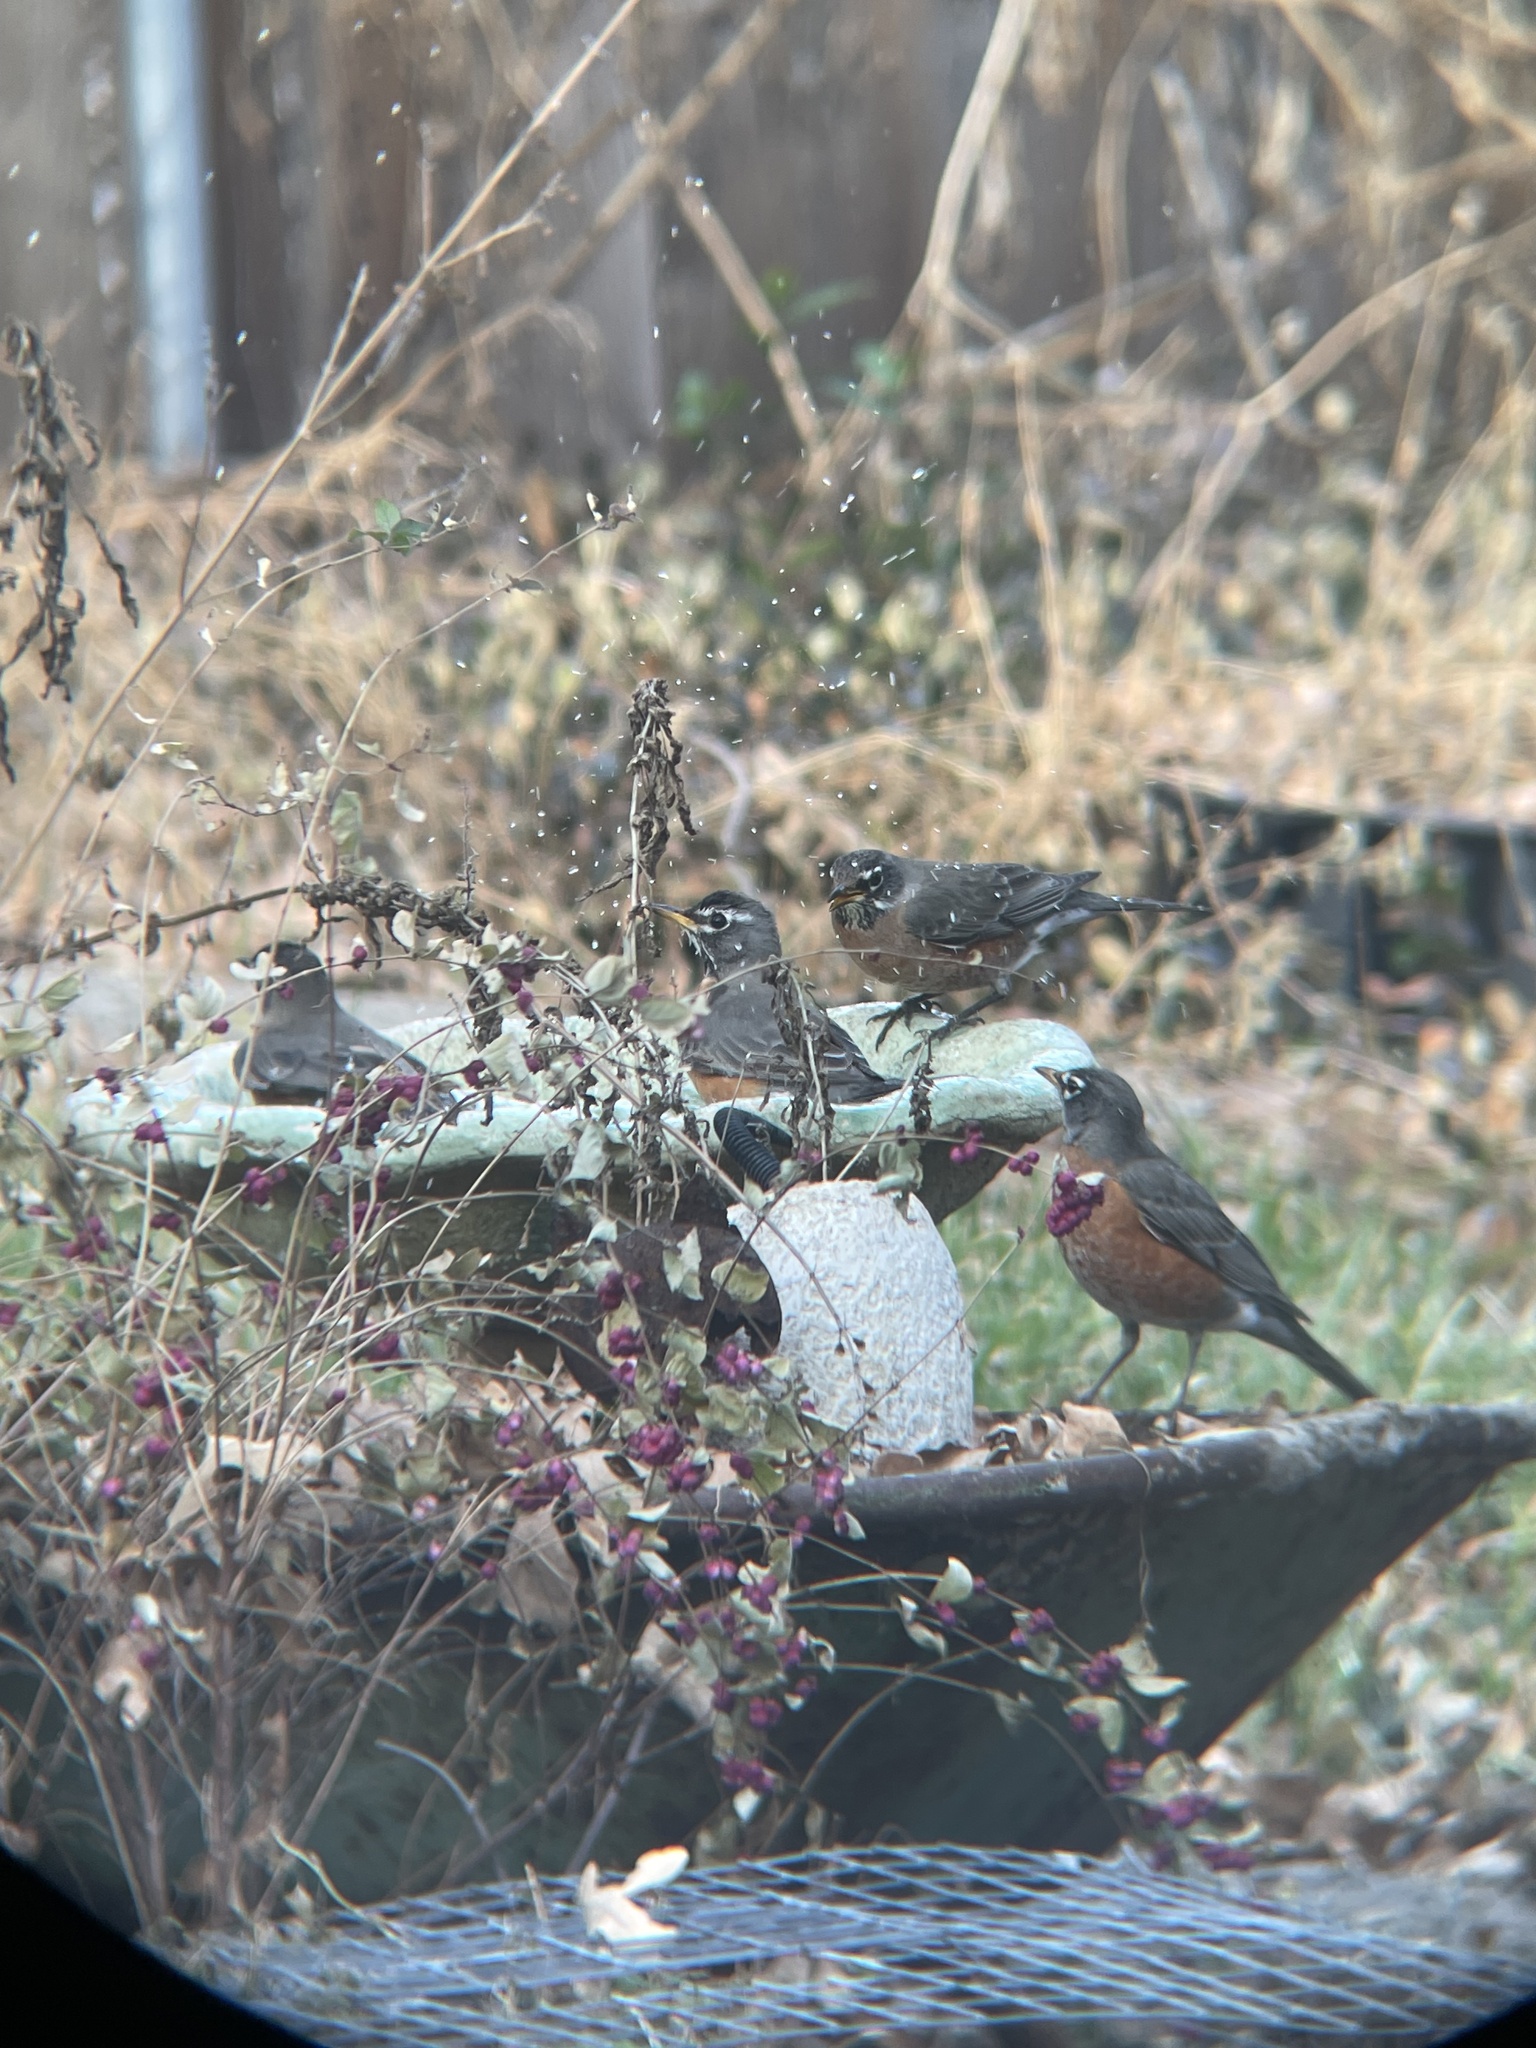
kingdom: Animalia
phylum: Chordata
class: Aves
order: Passeriformes
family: Turdidae
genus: Turdus
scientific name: Turdus migratorius
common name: American robin
